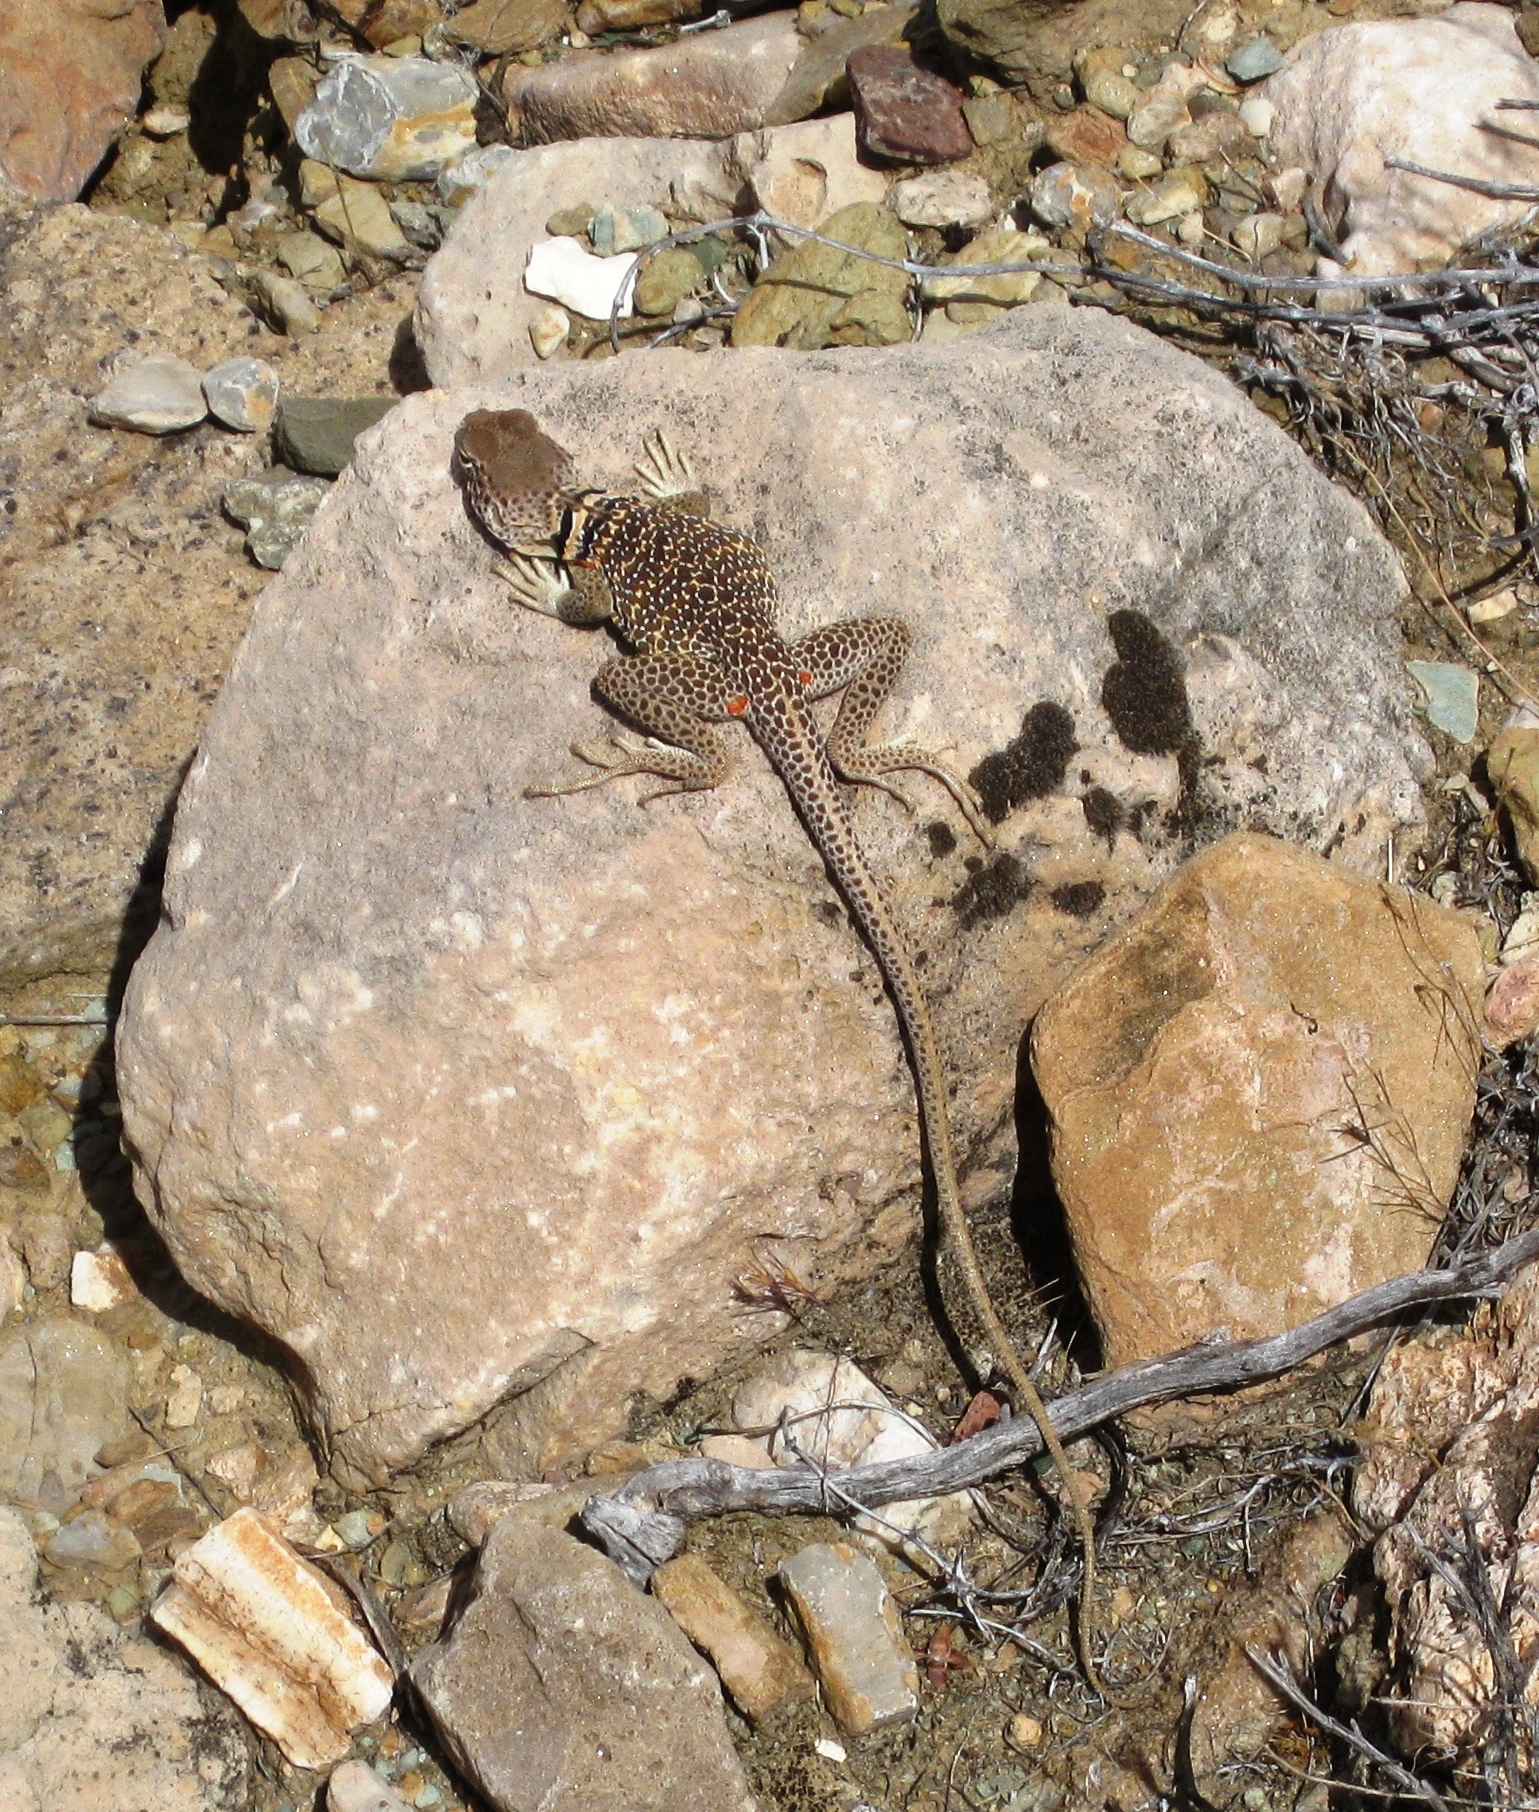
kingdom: Animalia
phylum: Chordata
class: Squamata
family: Crotaphytidae
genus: Crotaphytus
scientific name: Crotaphytus bicinctores
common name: Mojave black-collared lizard
